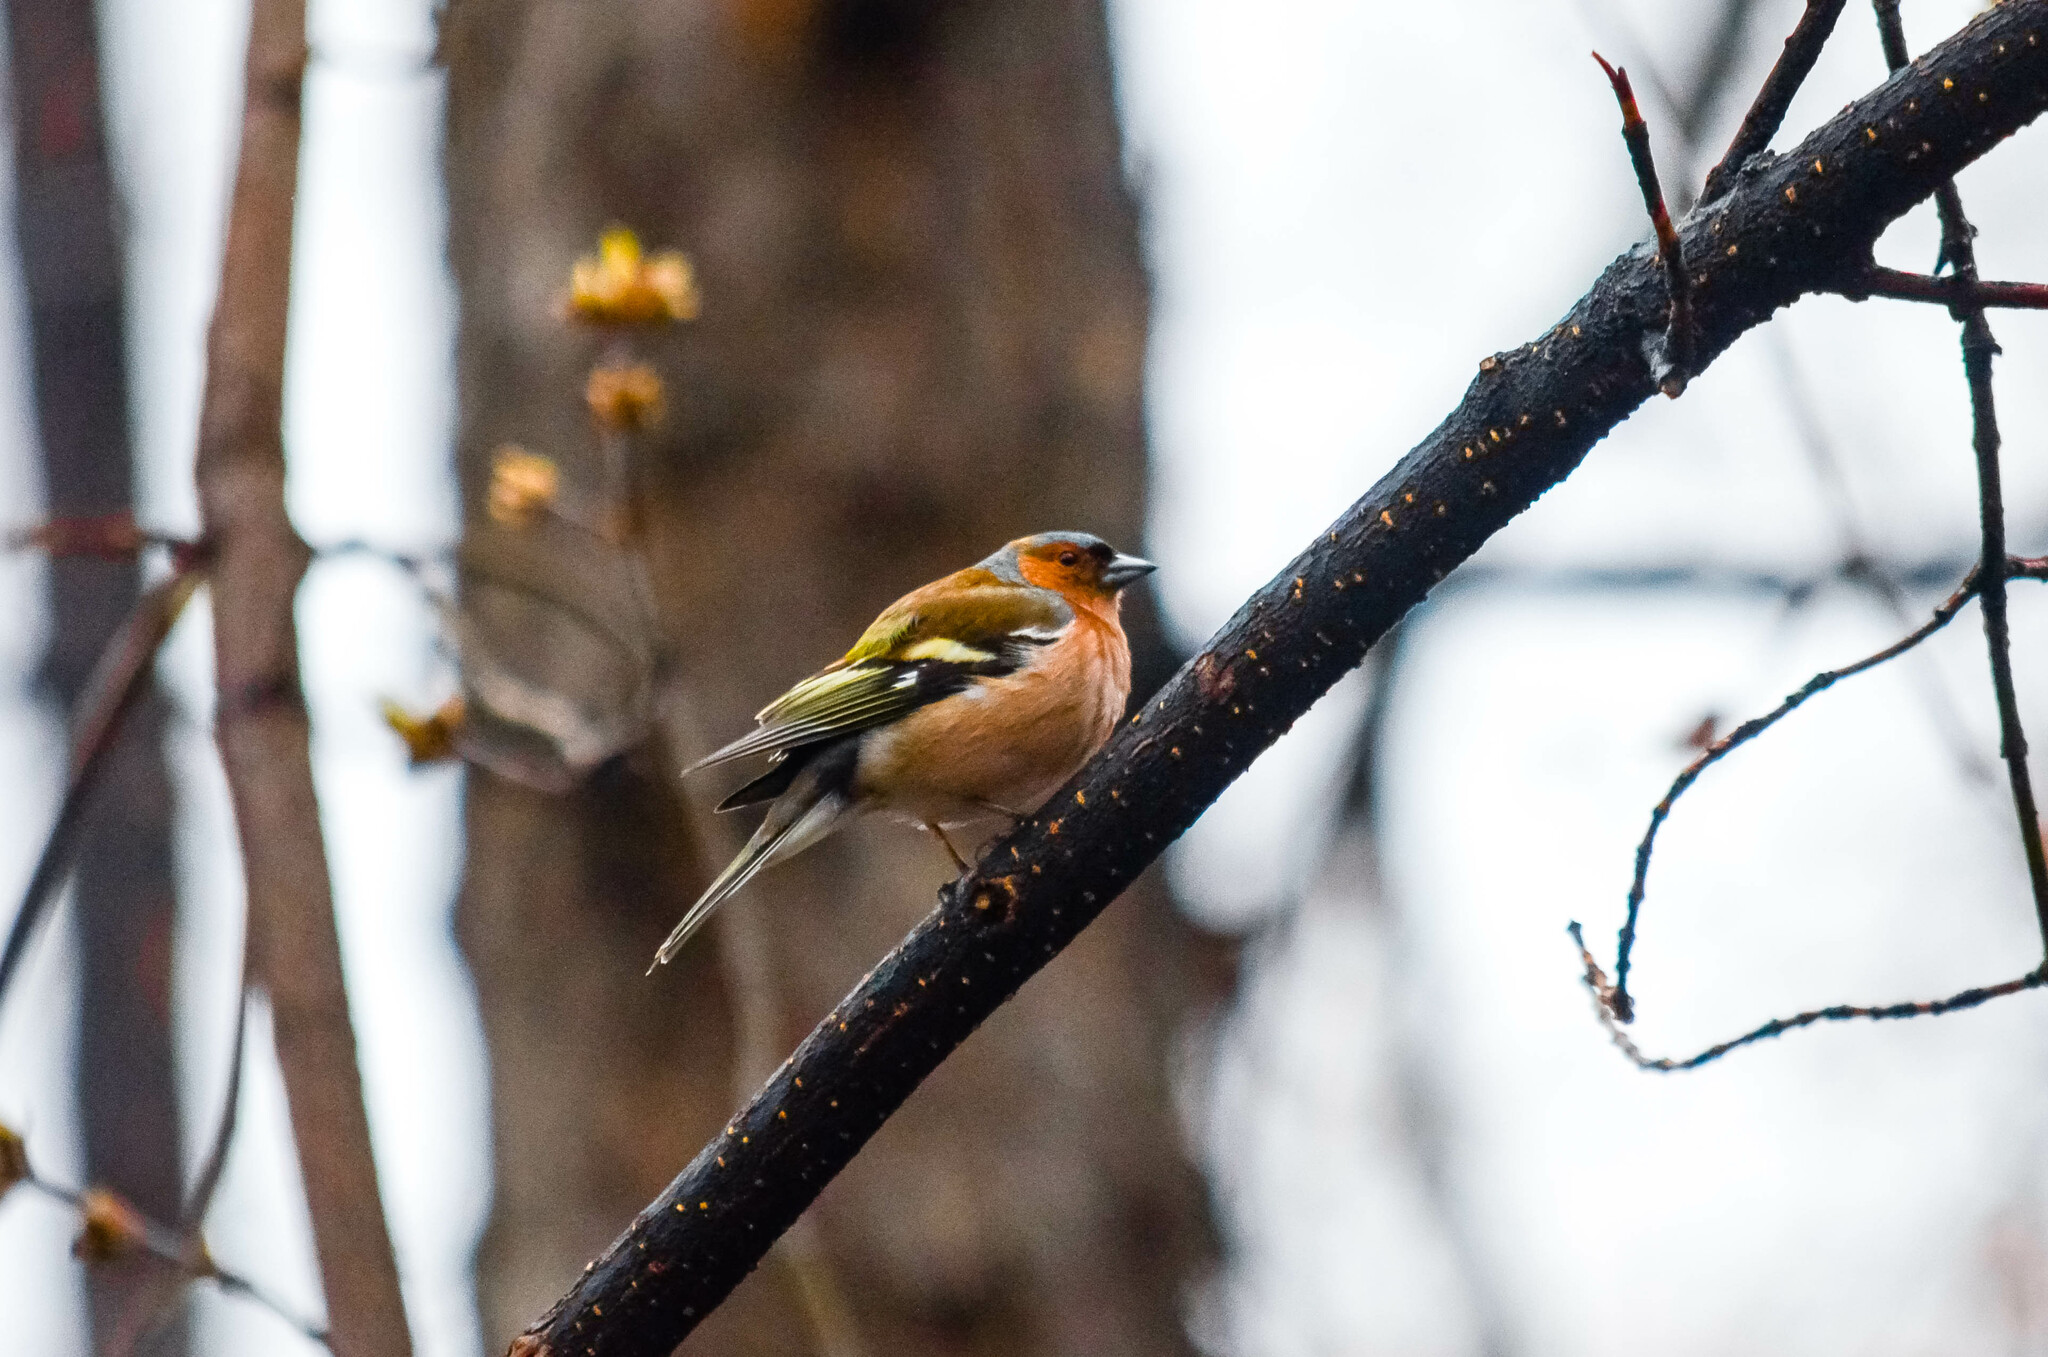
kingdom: Animalia
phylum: Chordata
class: Aves
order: Passeriformes
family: Fringillidae
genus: Fringilla
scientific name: Fringilla coelebs
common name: Common chaffinch
